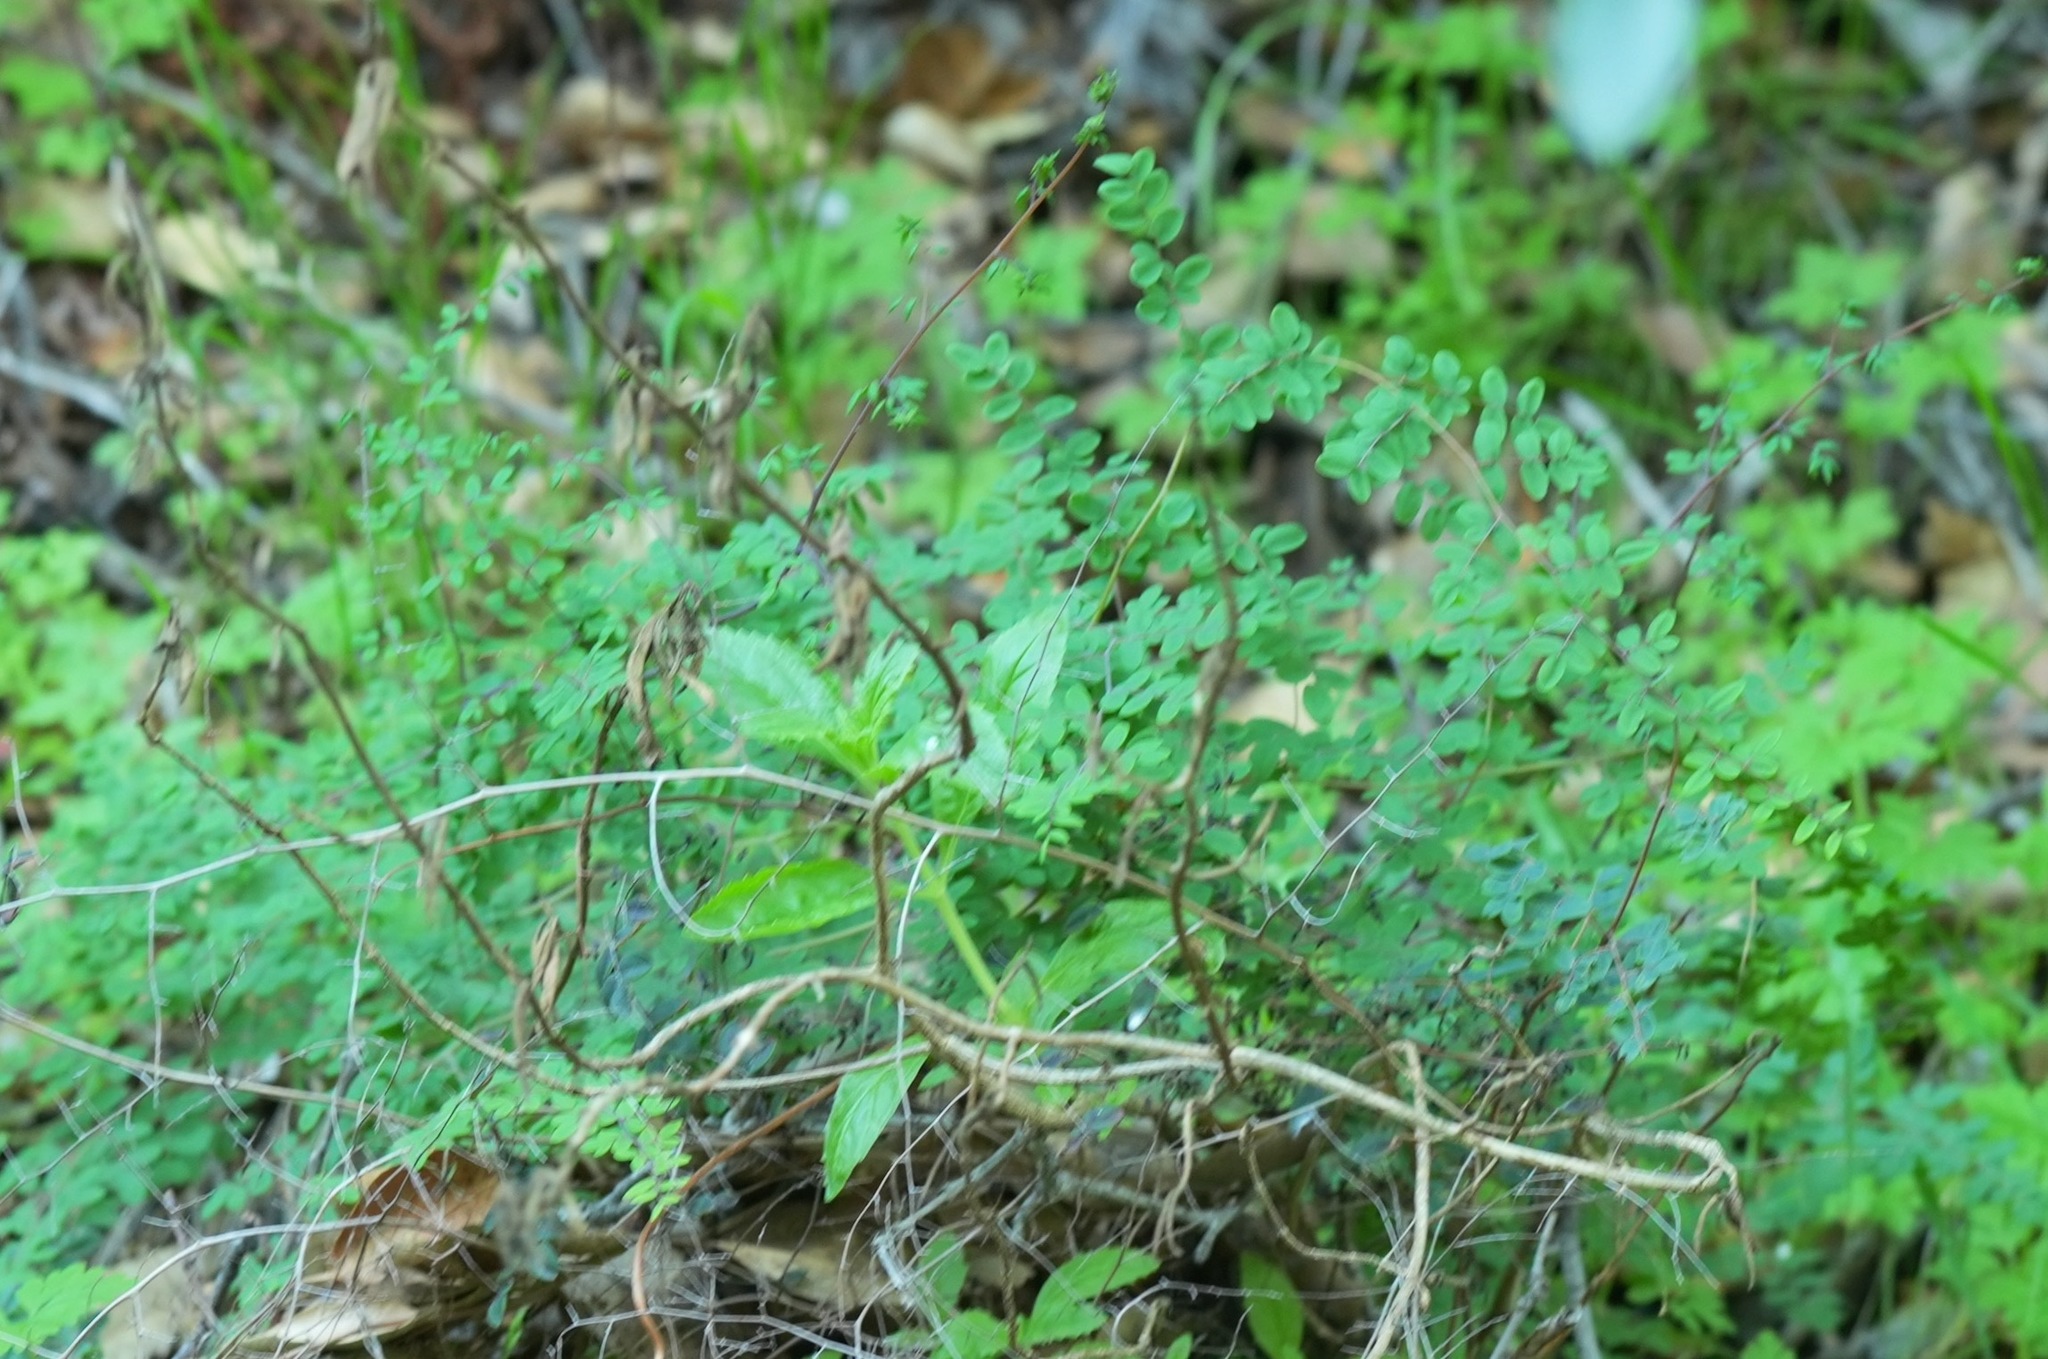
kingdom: Plantae
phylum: Tracheophyta
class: Polypodiopsida
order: Polypodiales
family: Pteridaceae
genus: Pellaea
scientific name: Pellaea andromedifolia
